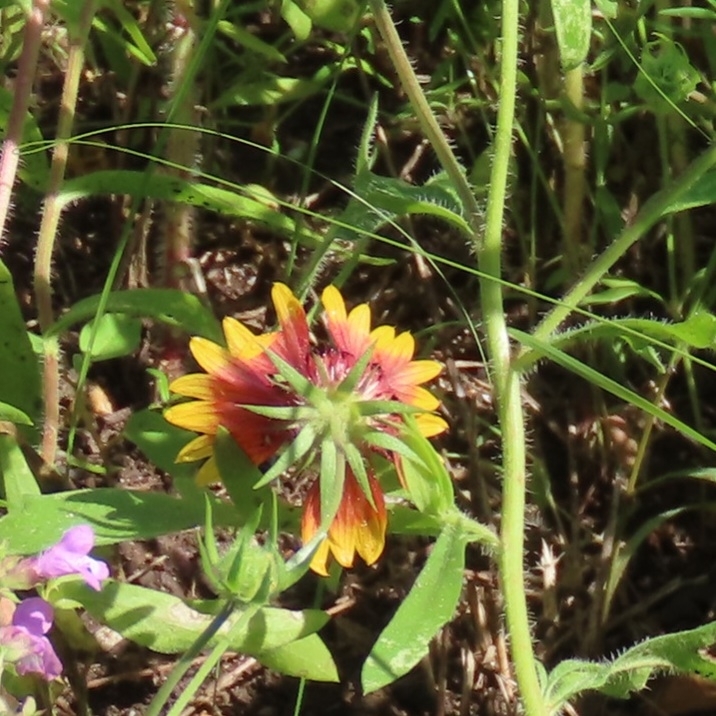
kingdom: Plantae
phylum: Tracheophyta
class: Magnoliopsida
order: Asterales
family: Asteraceae
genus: Gaillardia
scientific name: Gaillardia pulchella
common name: Firewheel
